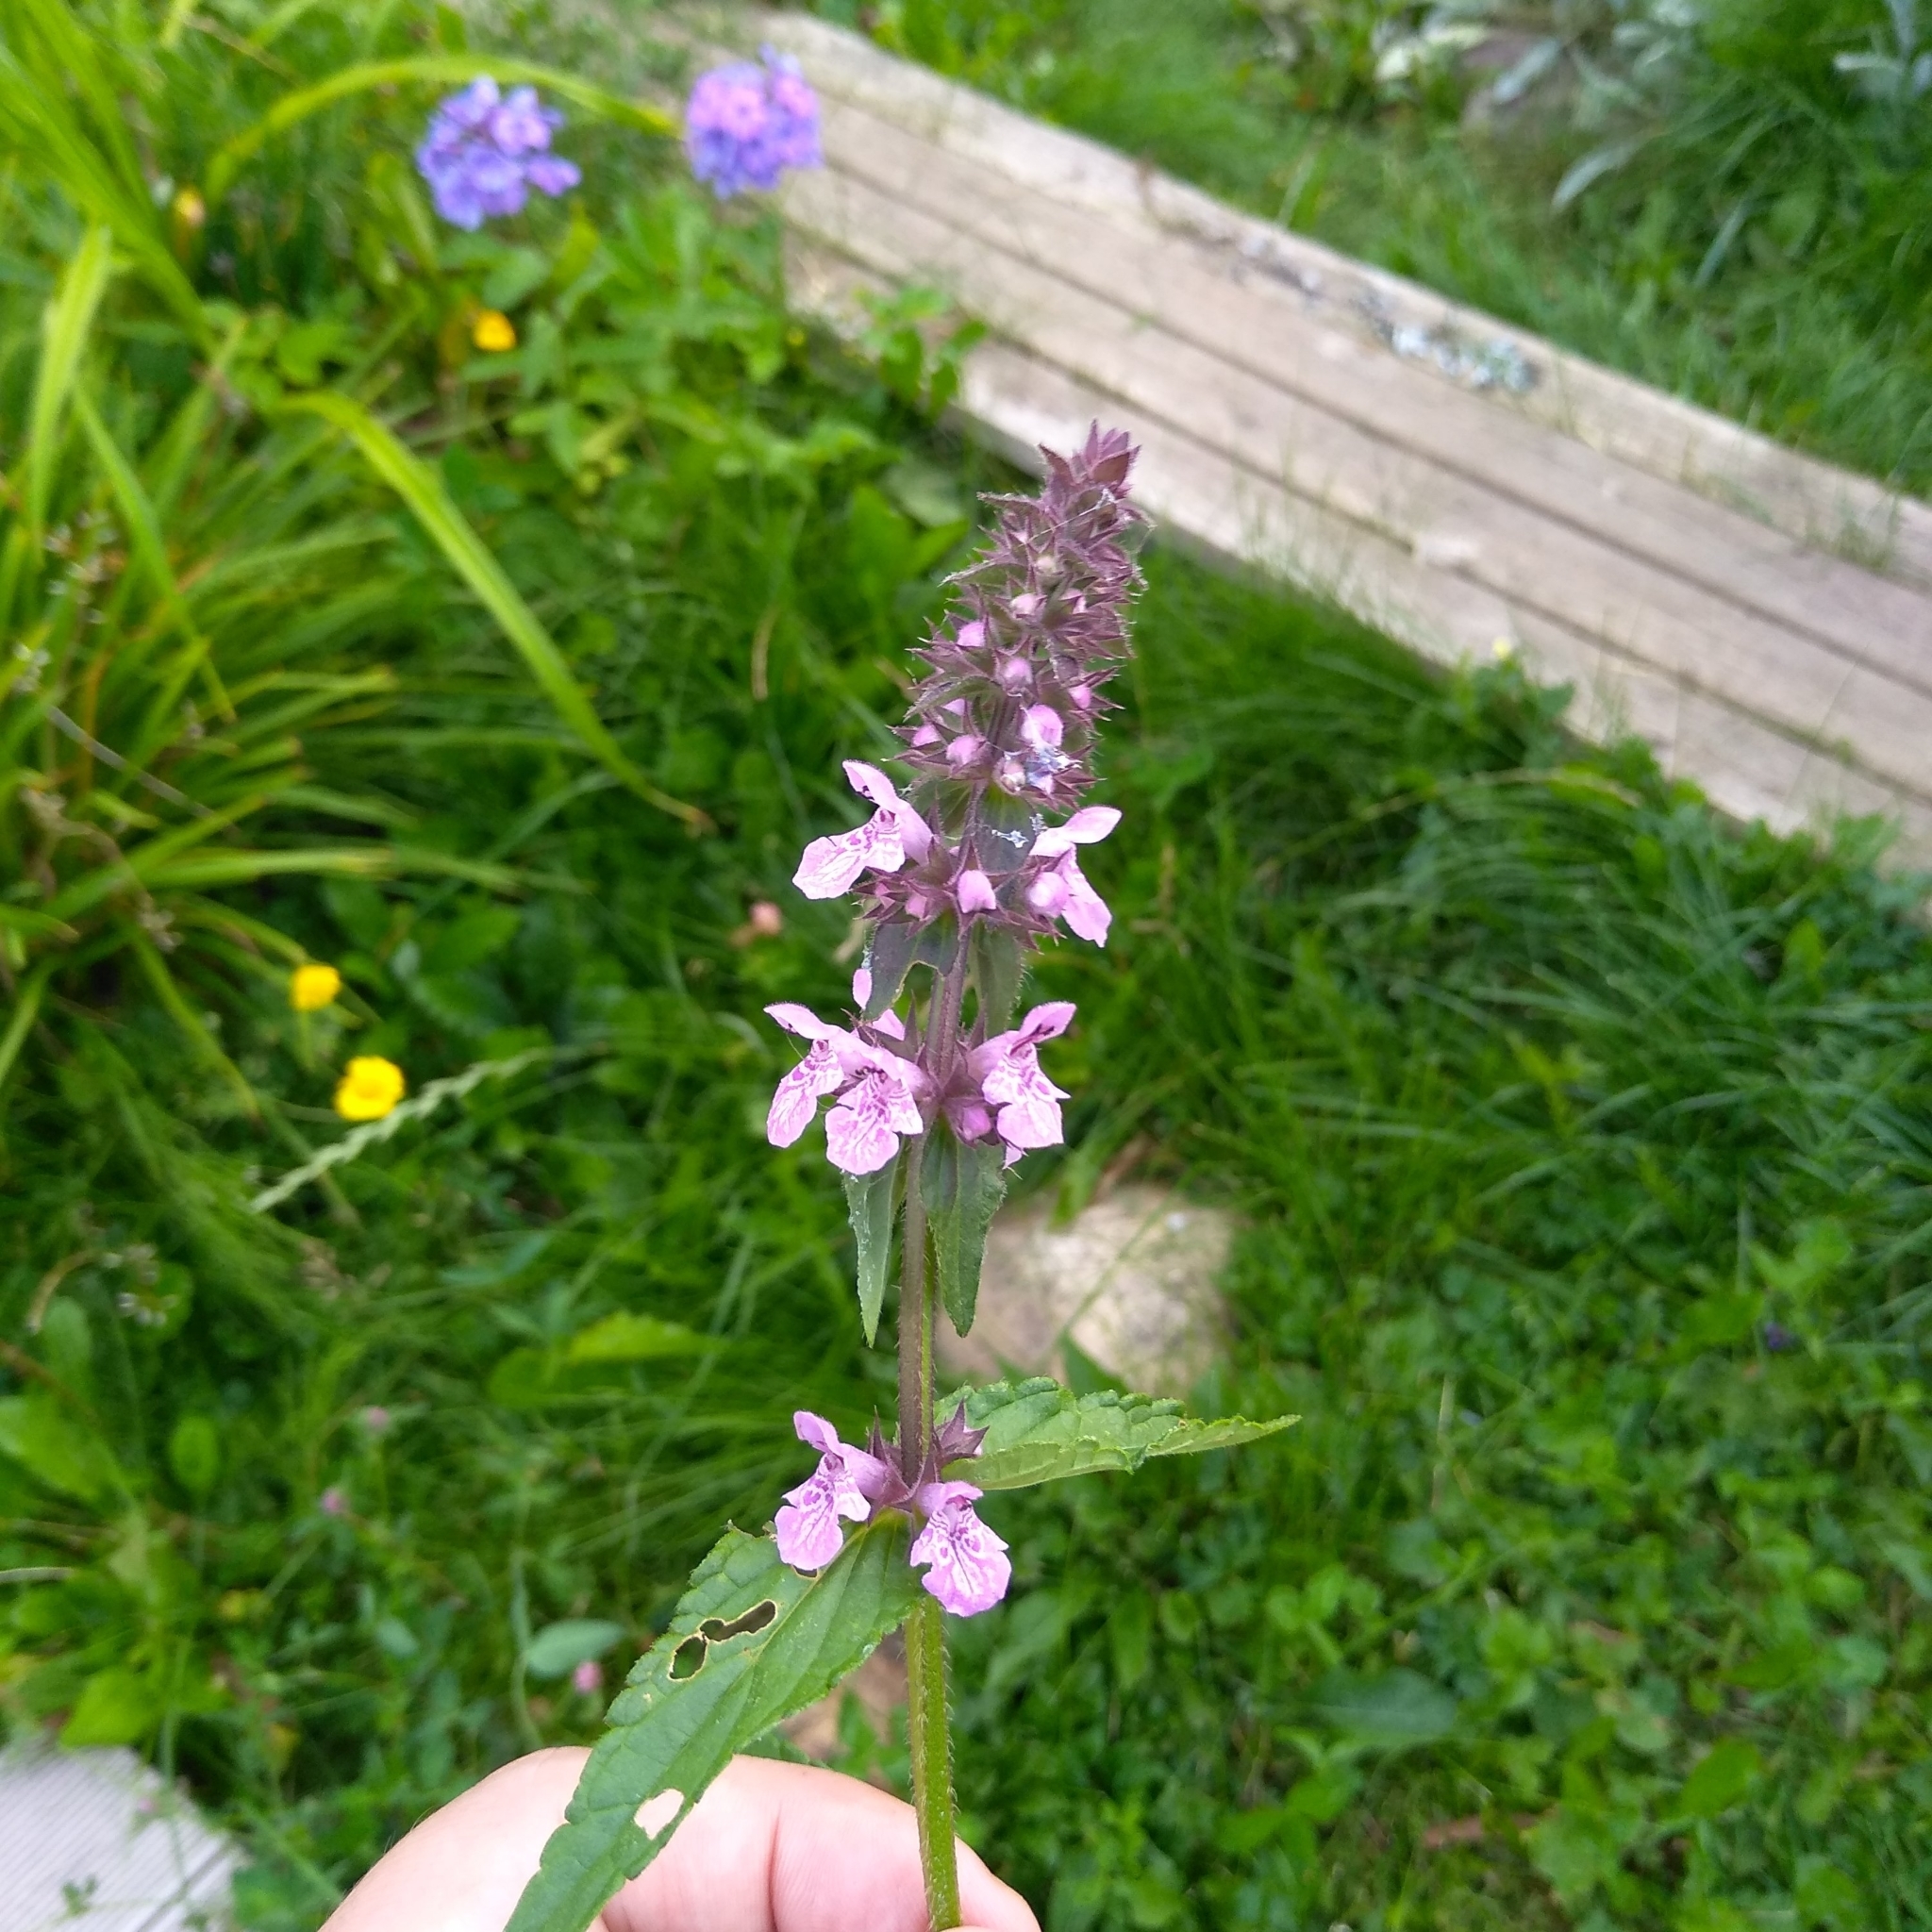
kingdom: Plantae
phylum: Tracheophyta
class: Magnoliopsida
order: Lamiales
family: Lamiaceae
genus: Stachys
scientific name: Stachys palustris
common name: Marsh woundwort
